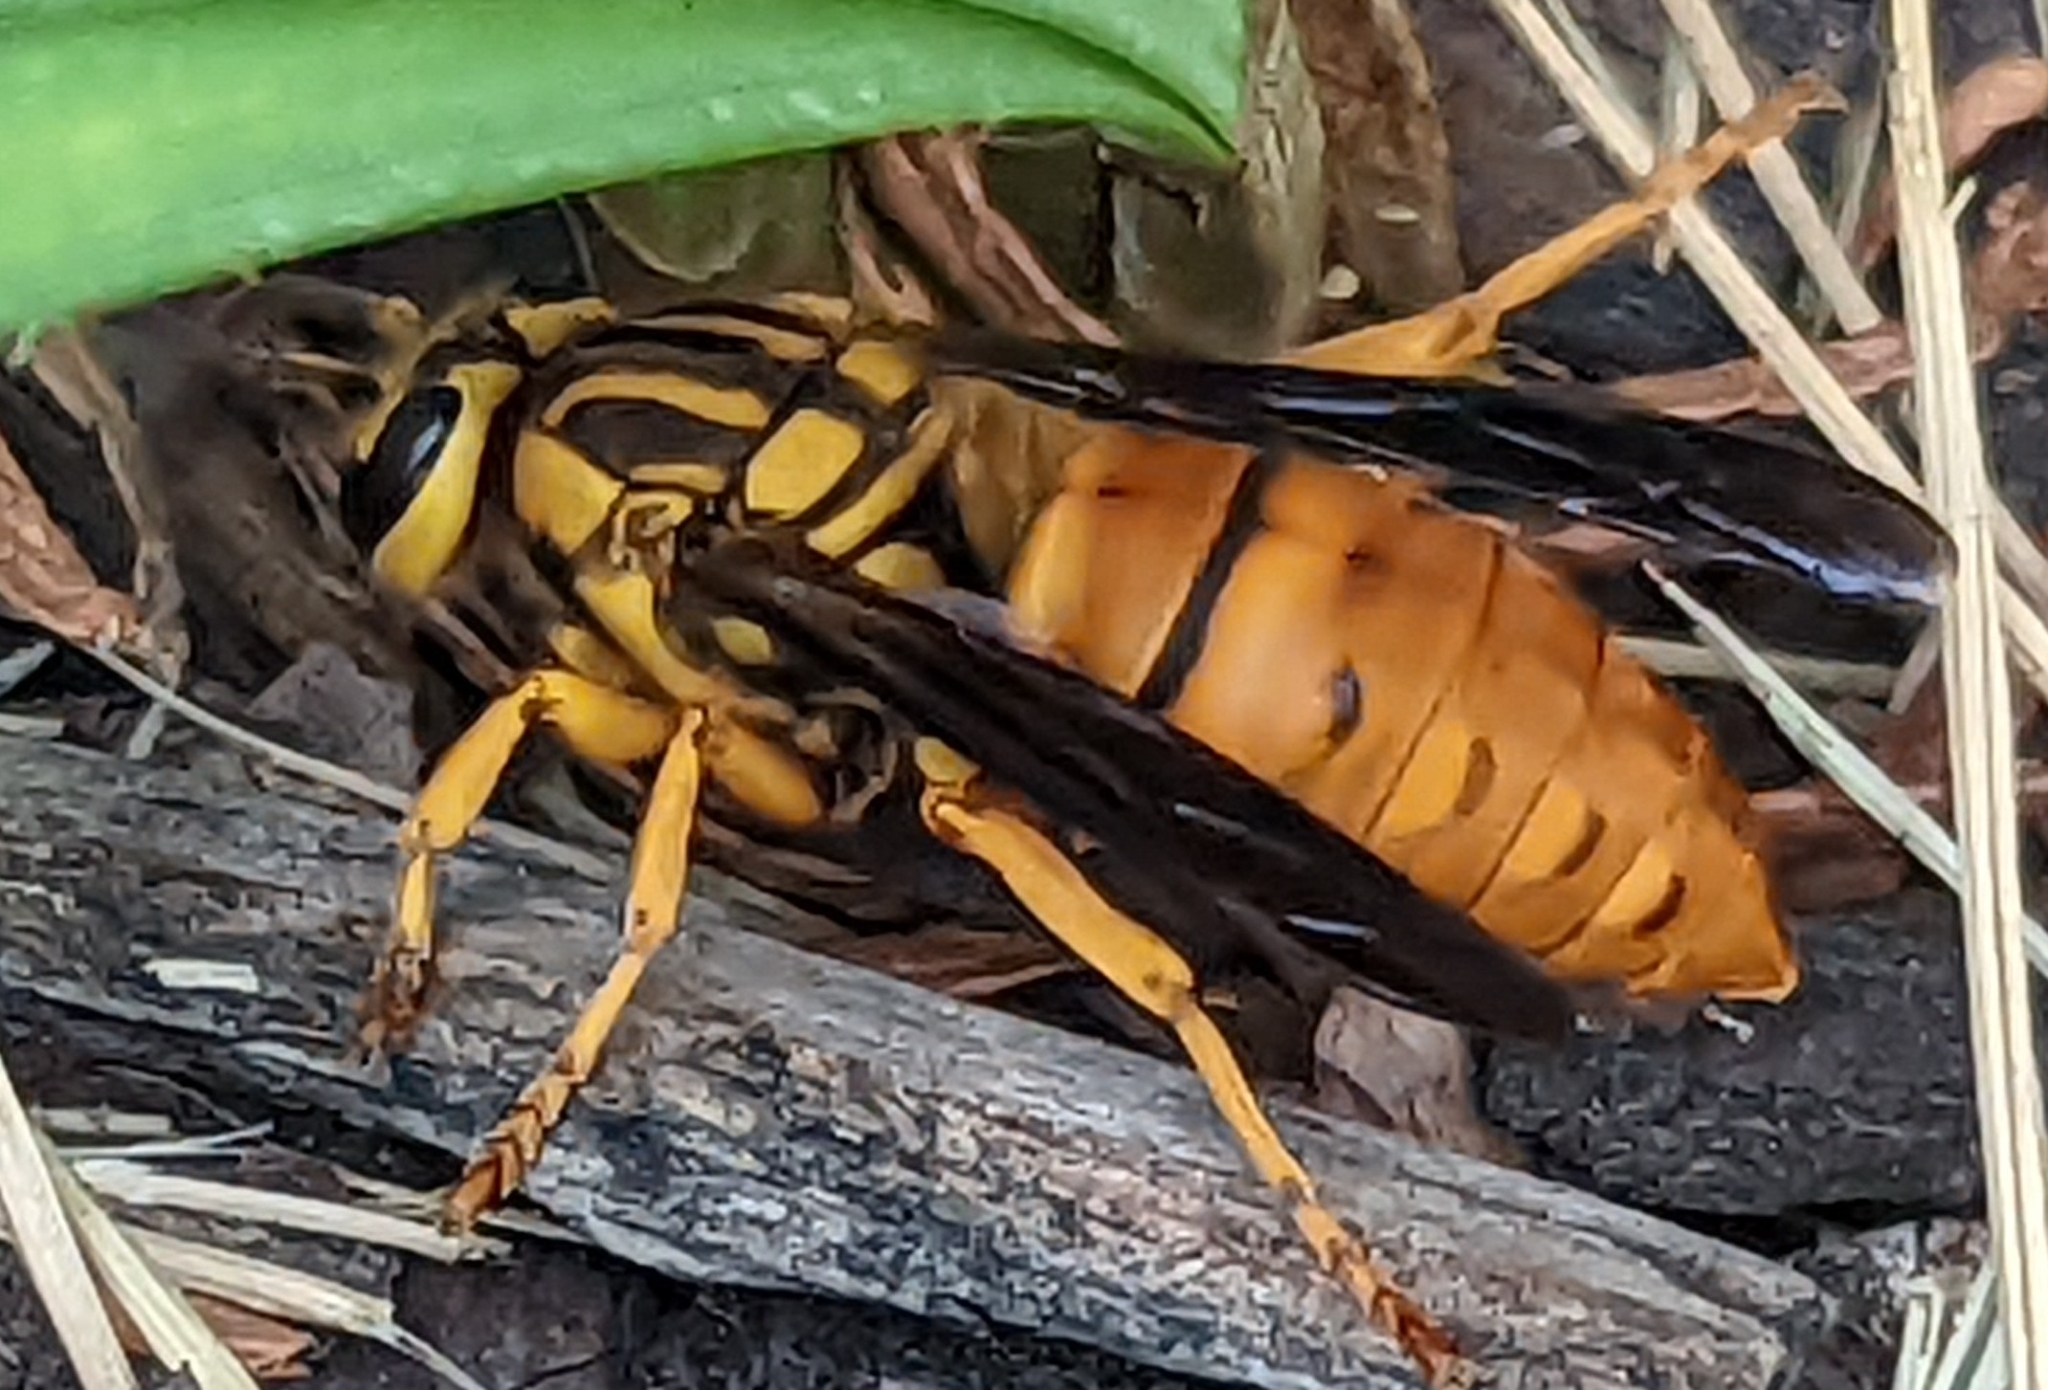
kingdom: Animalia
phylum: Arthropoda
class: Insecta
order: Hymenoptera
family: Vespidae
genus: Vespula
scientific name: Vespula squamosa
